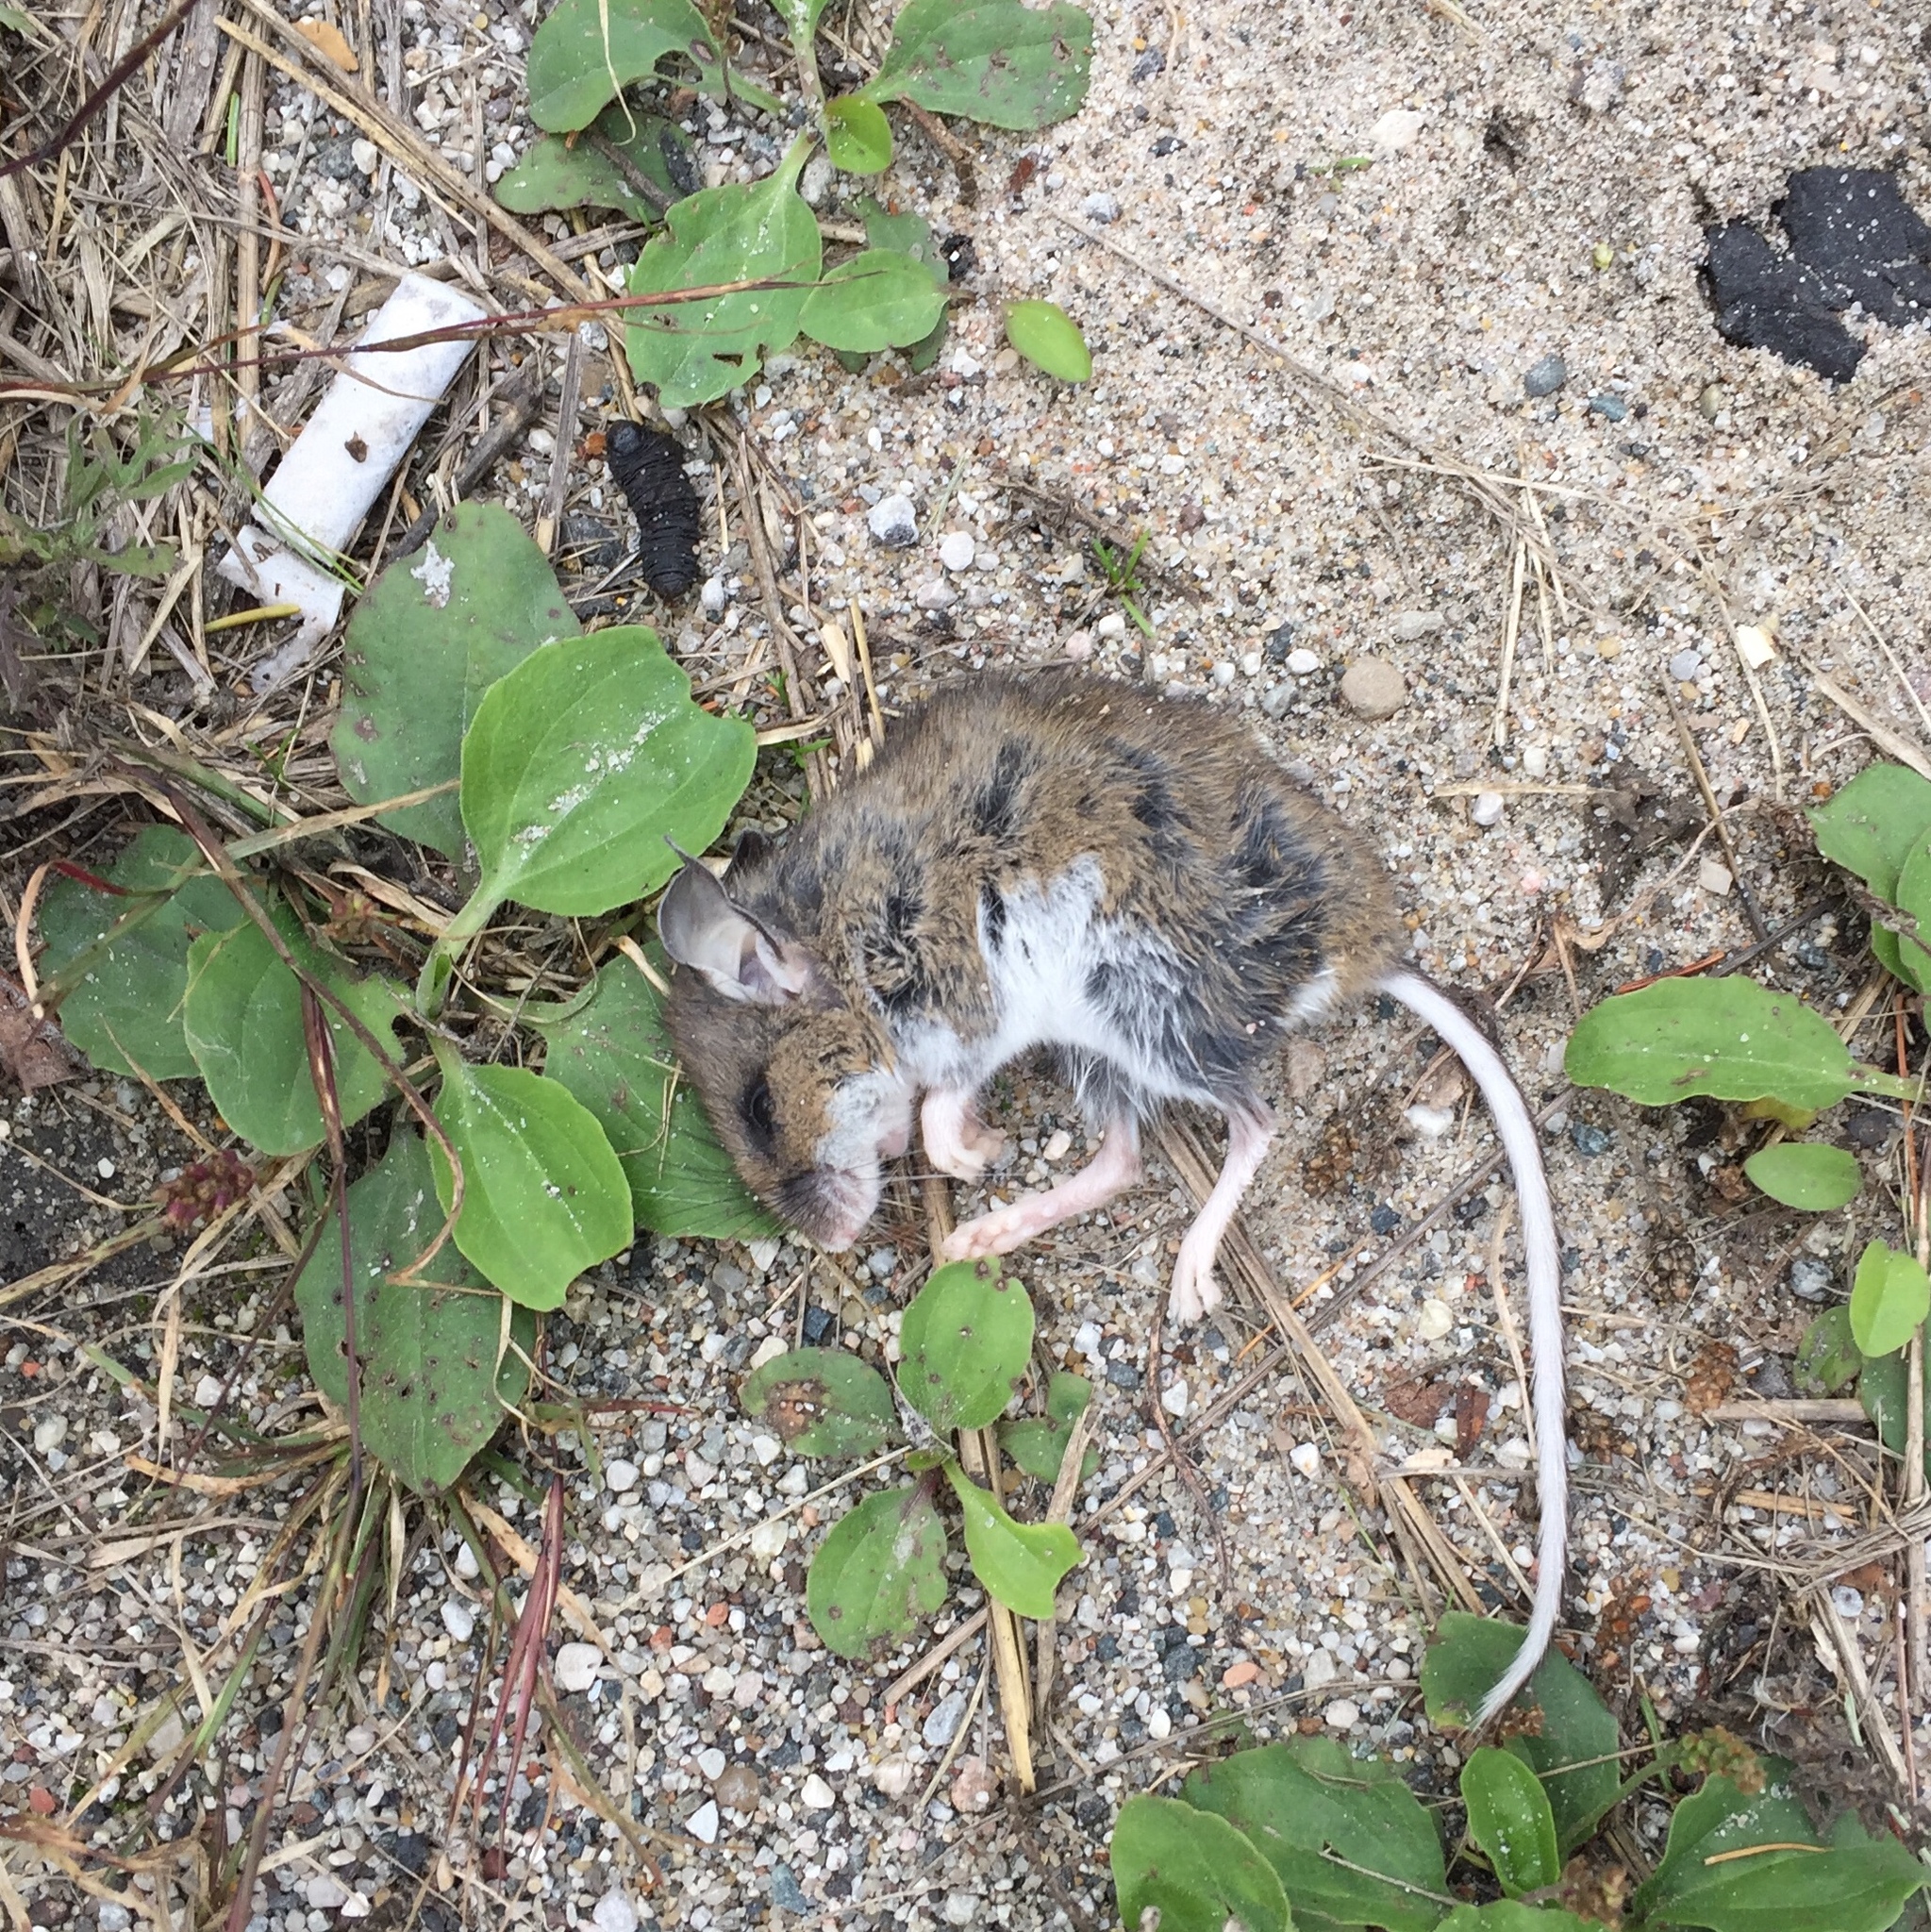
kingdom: Animalia
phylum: Chordata
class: Mammalia
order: Rodentia
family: Cricetidae
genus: Peromyscus
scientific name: Peromyscus maniculatus
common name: Deer mouse
